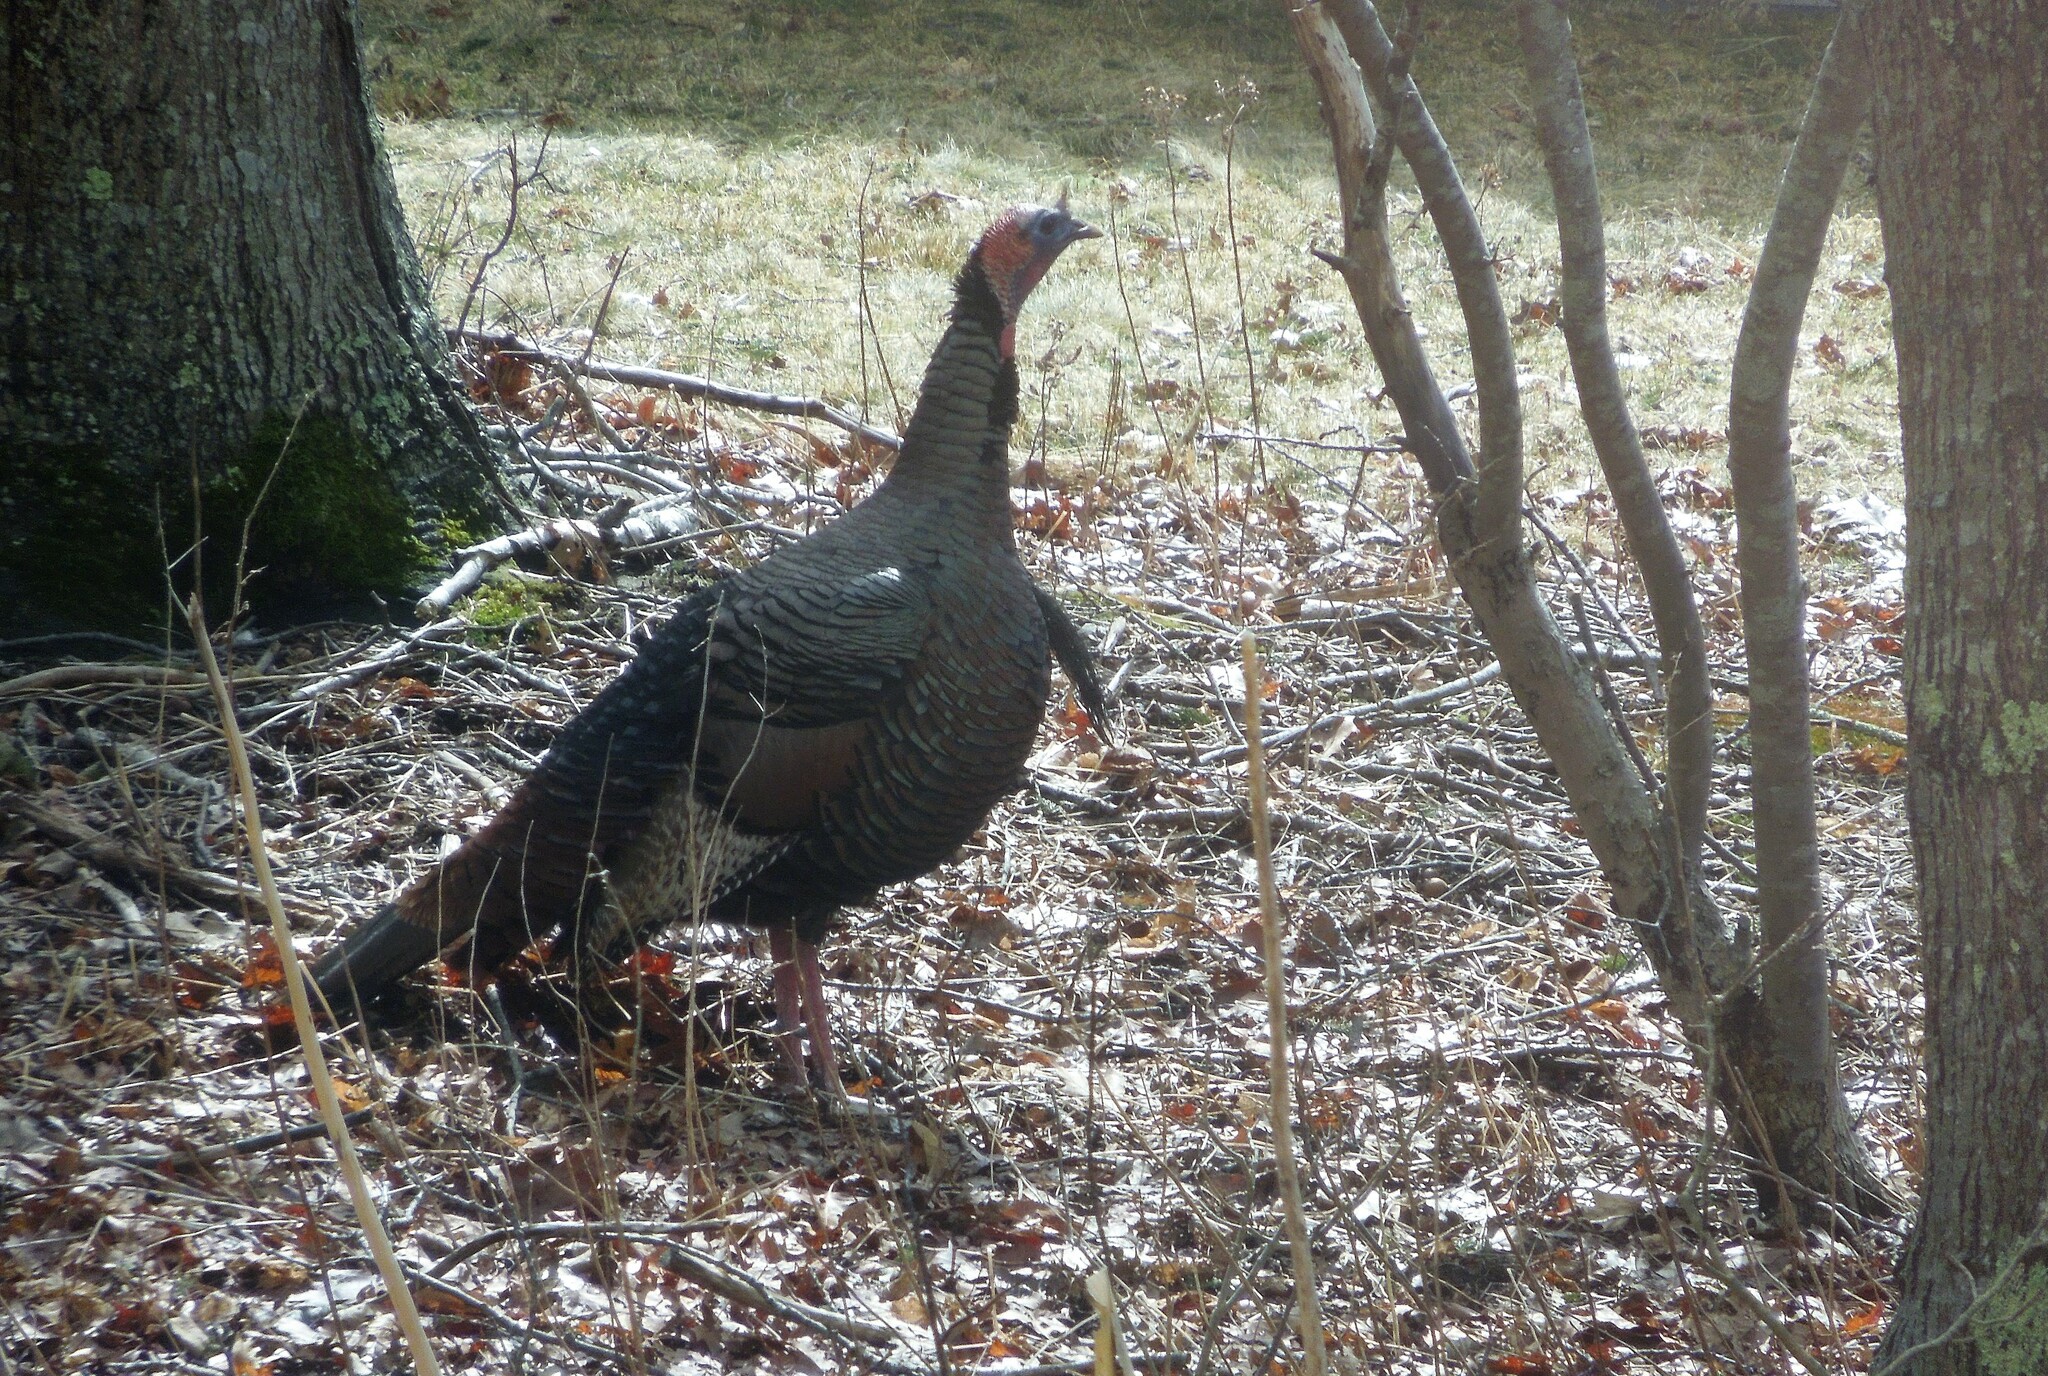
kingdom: Animalia
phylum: Chordata
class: Aves
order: Galliformes
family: Phasianidae
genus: Meleagris
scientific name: Meleagris gallopavo
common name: Wild turkey
